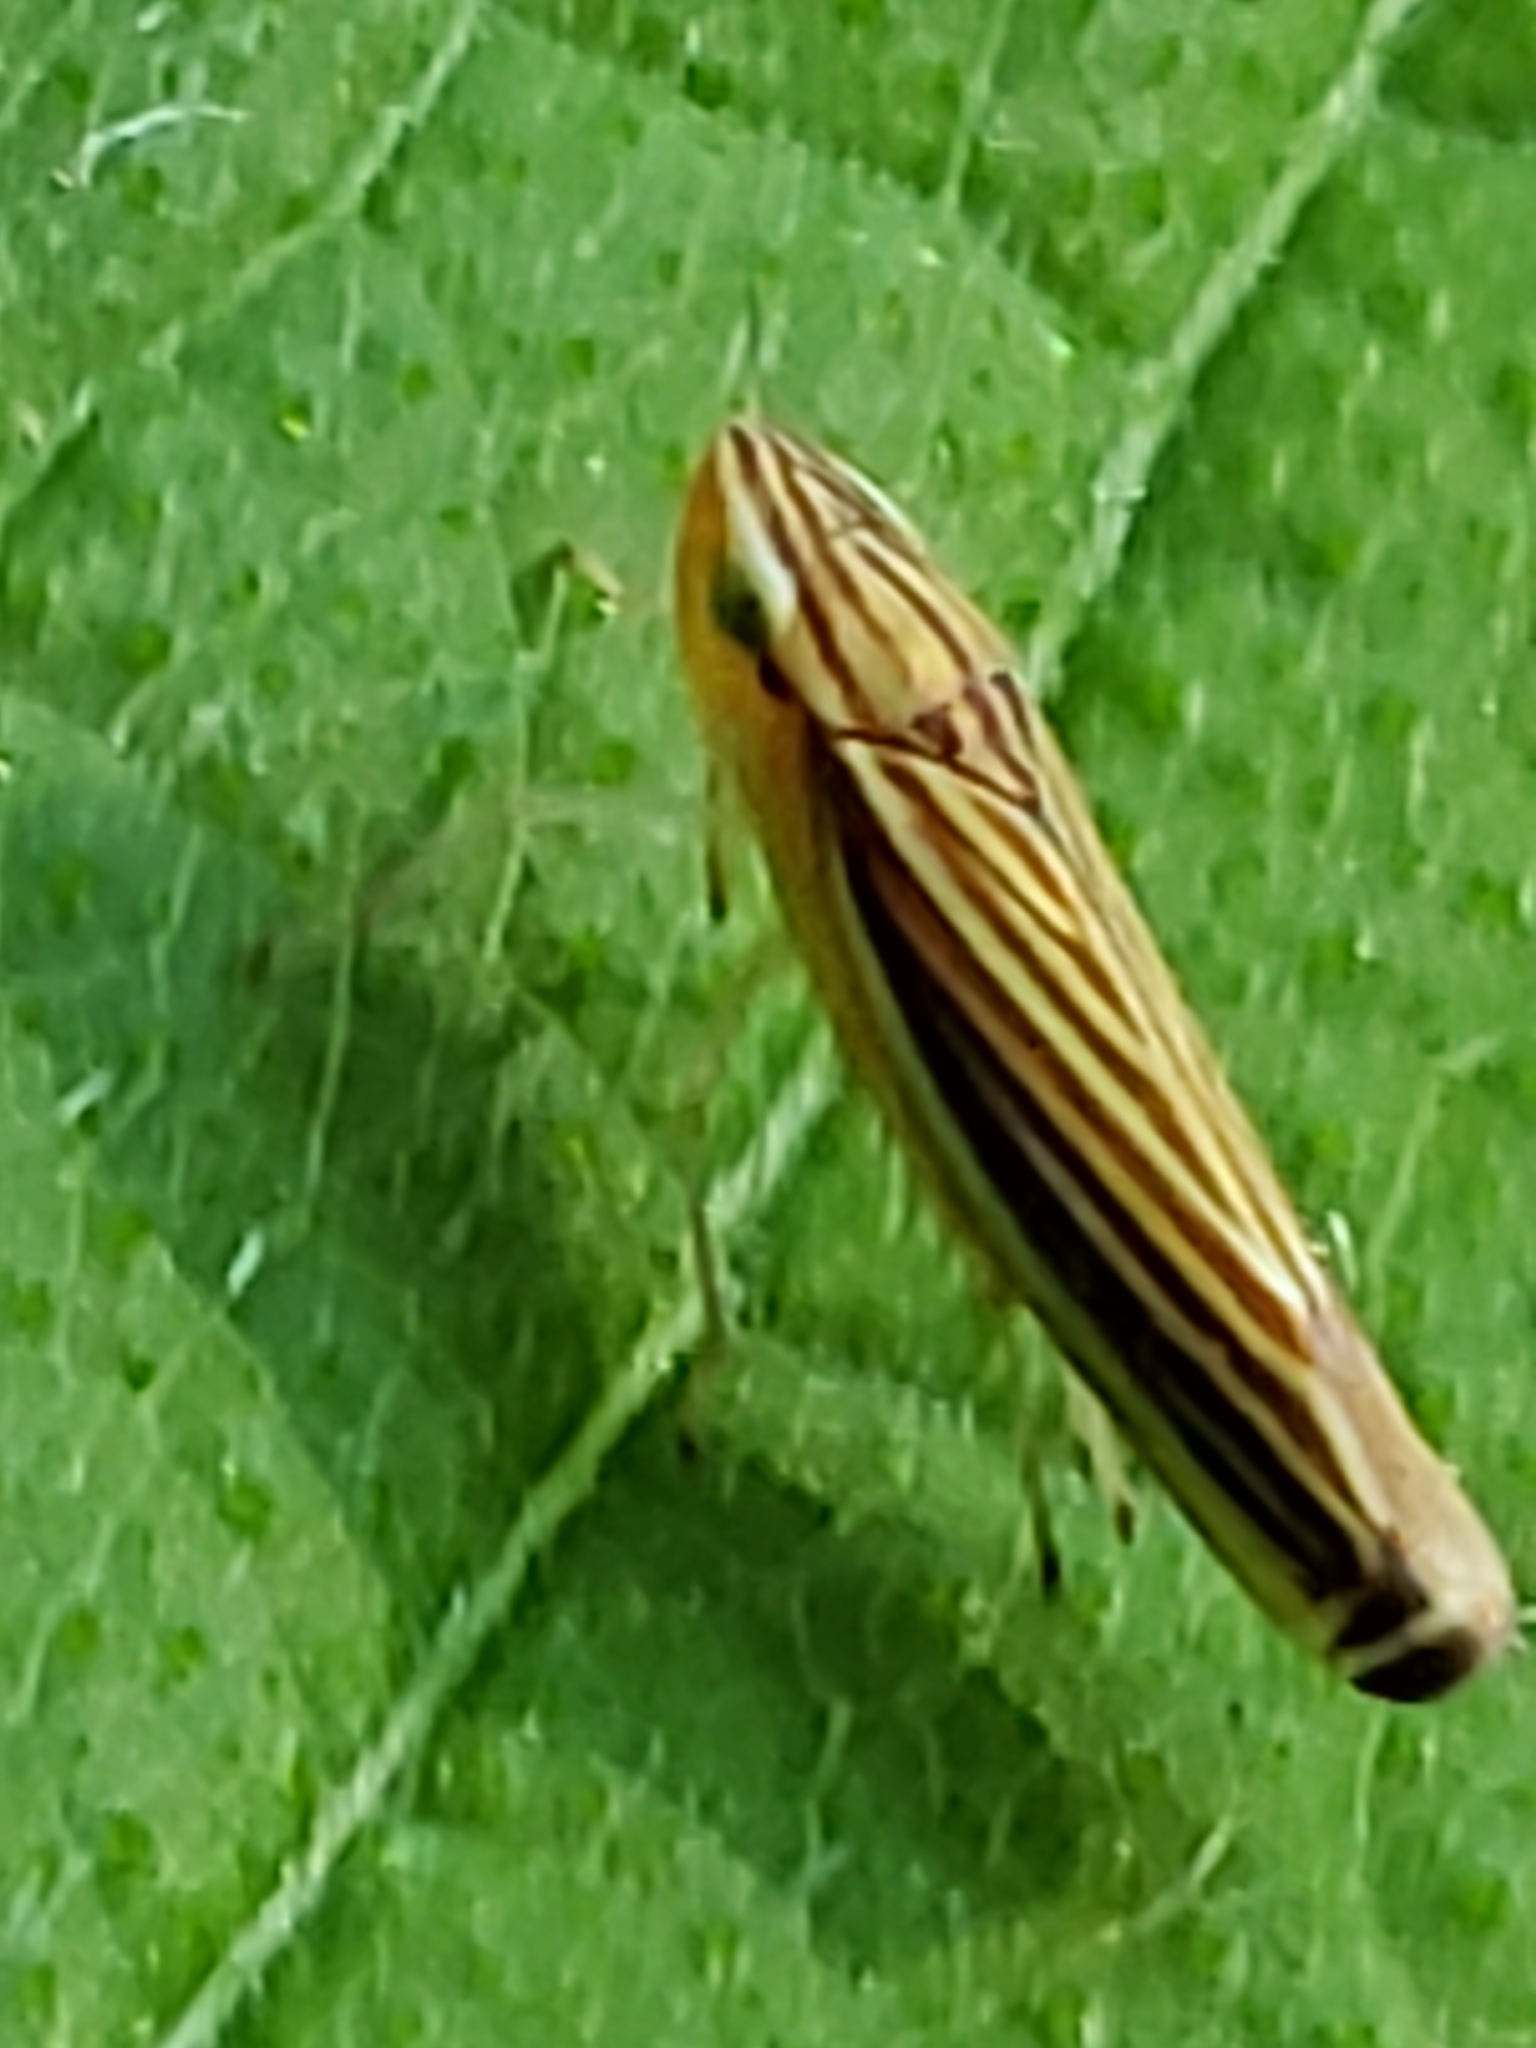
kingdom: Animalia
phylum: Arthropoda
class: Insecta
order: Hemiptera
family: Cicadellidae
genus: Sibovia
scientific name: Sibovia occatoria
